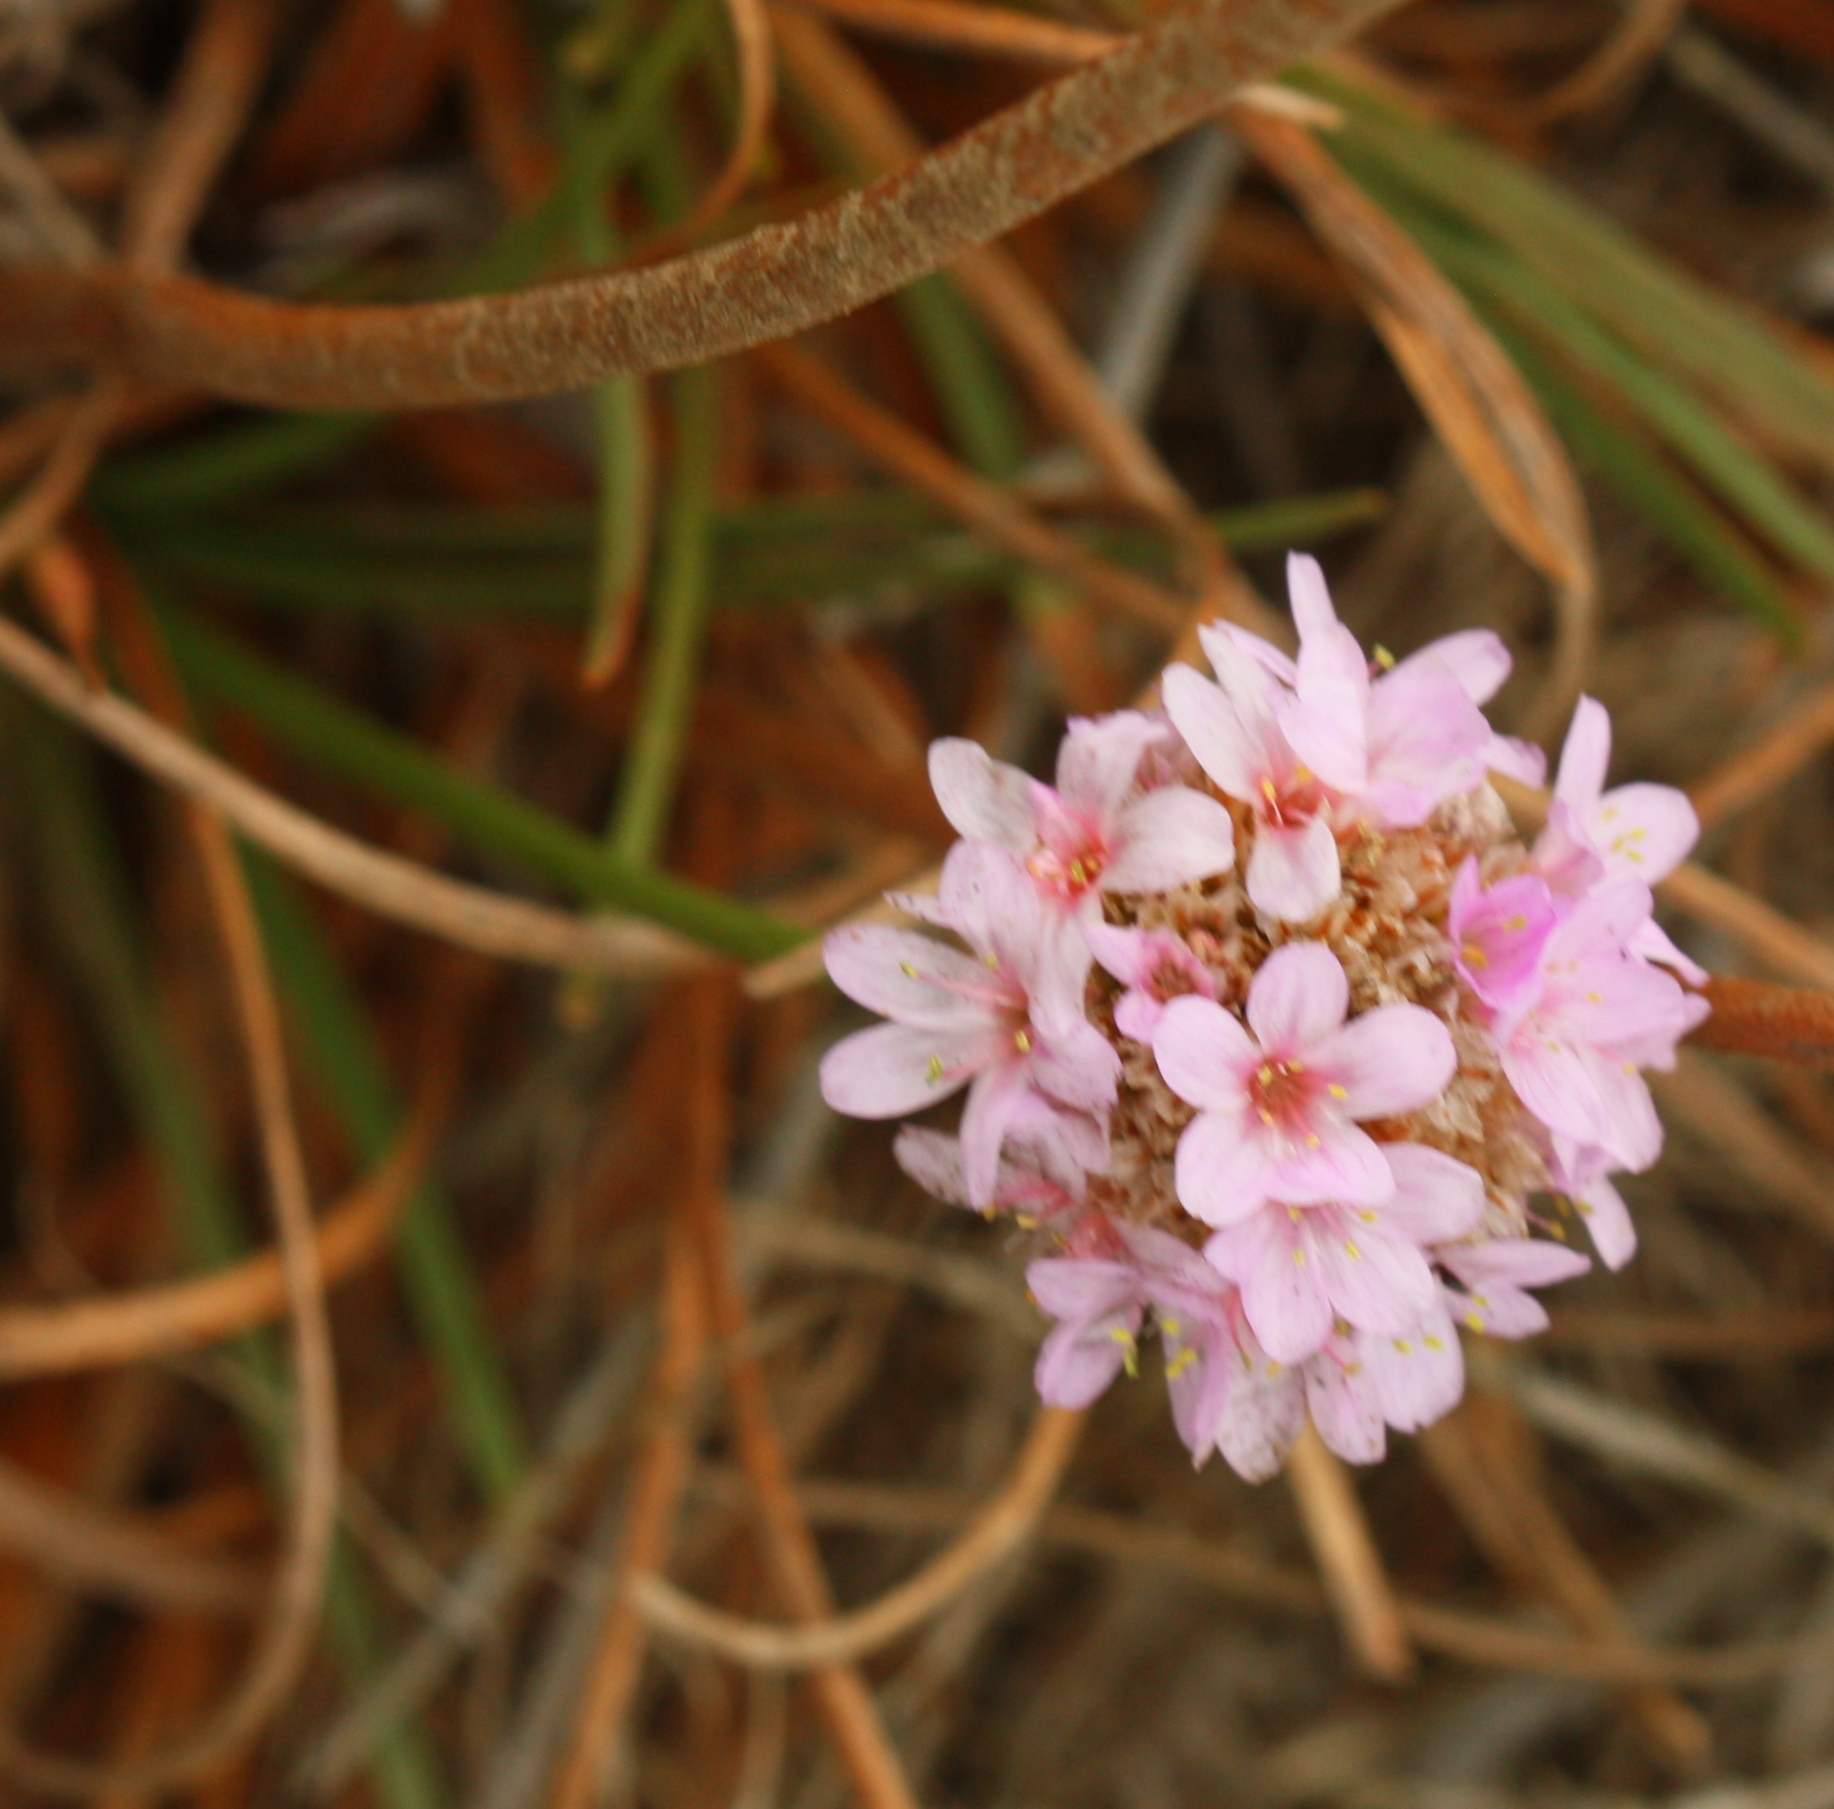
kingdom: Plantae
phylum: Tracheophyta
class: Magnoliopsida
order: Caryophyllales
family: Plumbaginaceae
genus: Armeria
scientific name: Armeria maritima
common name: Thrift
